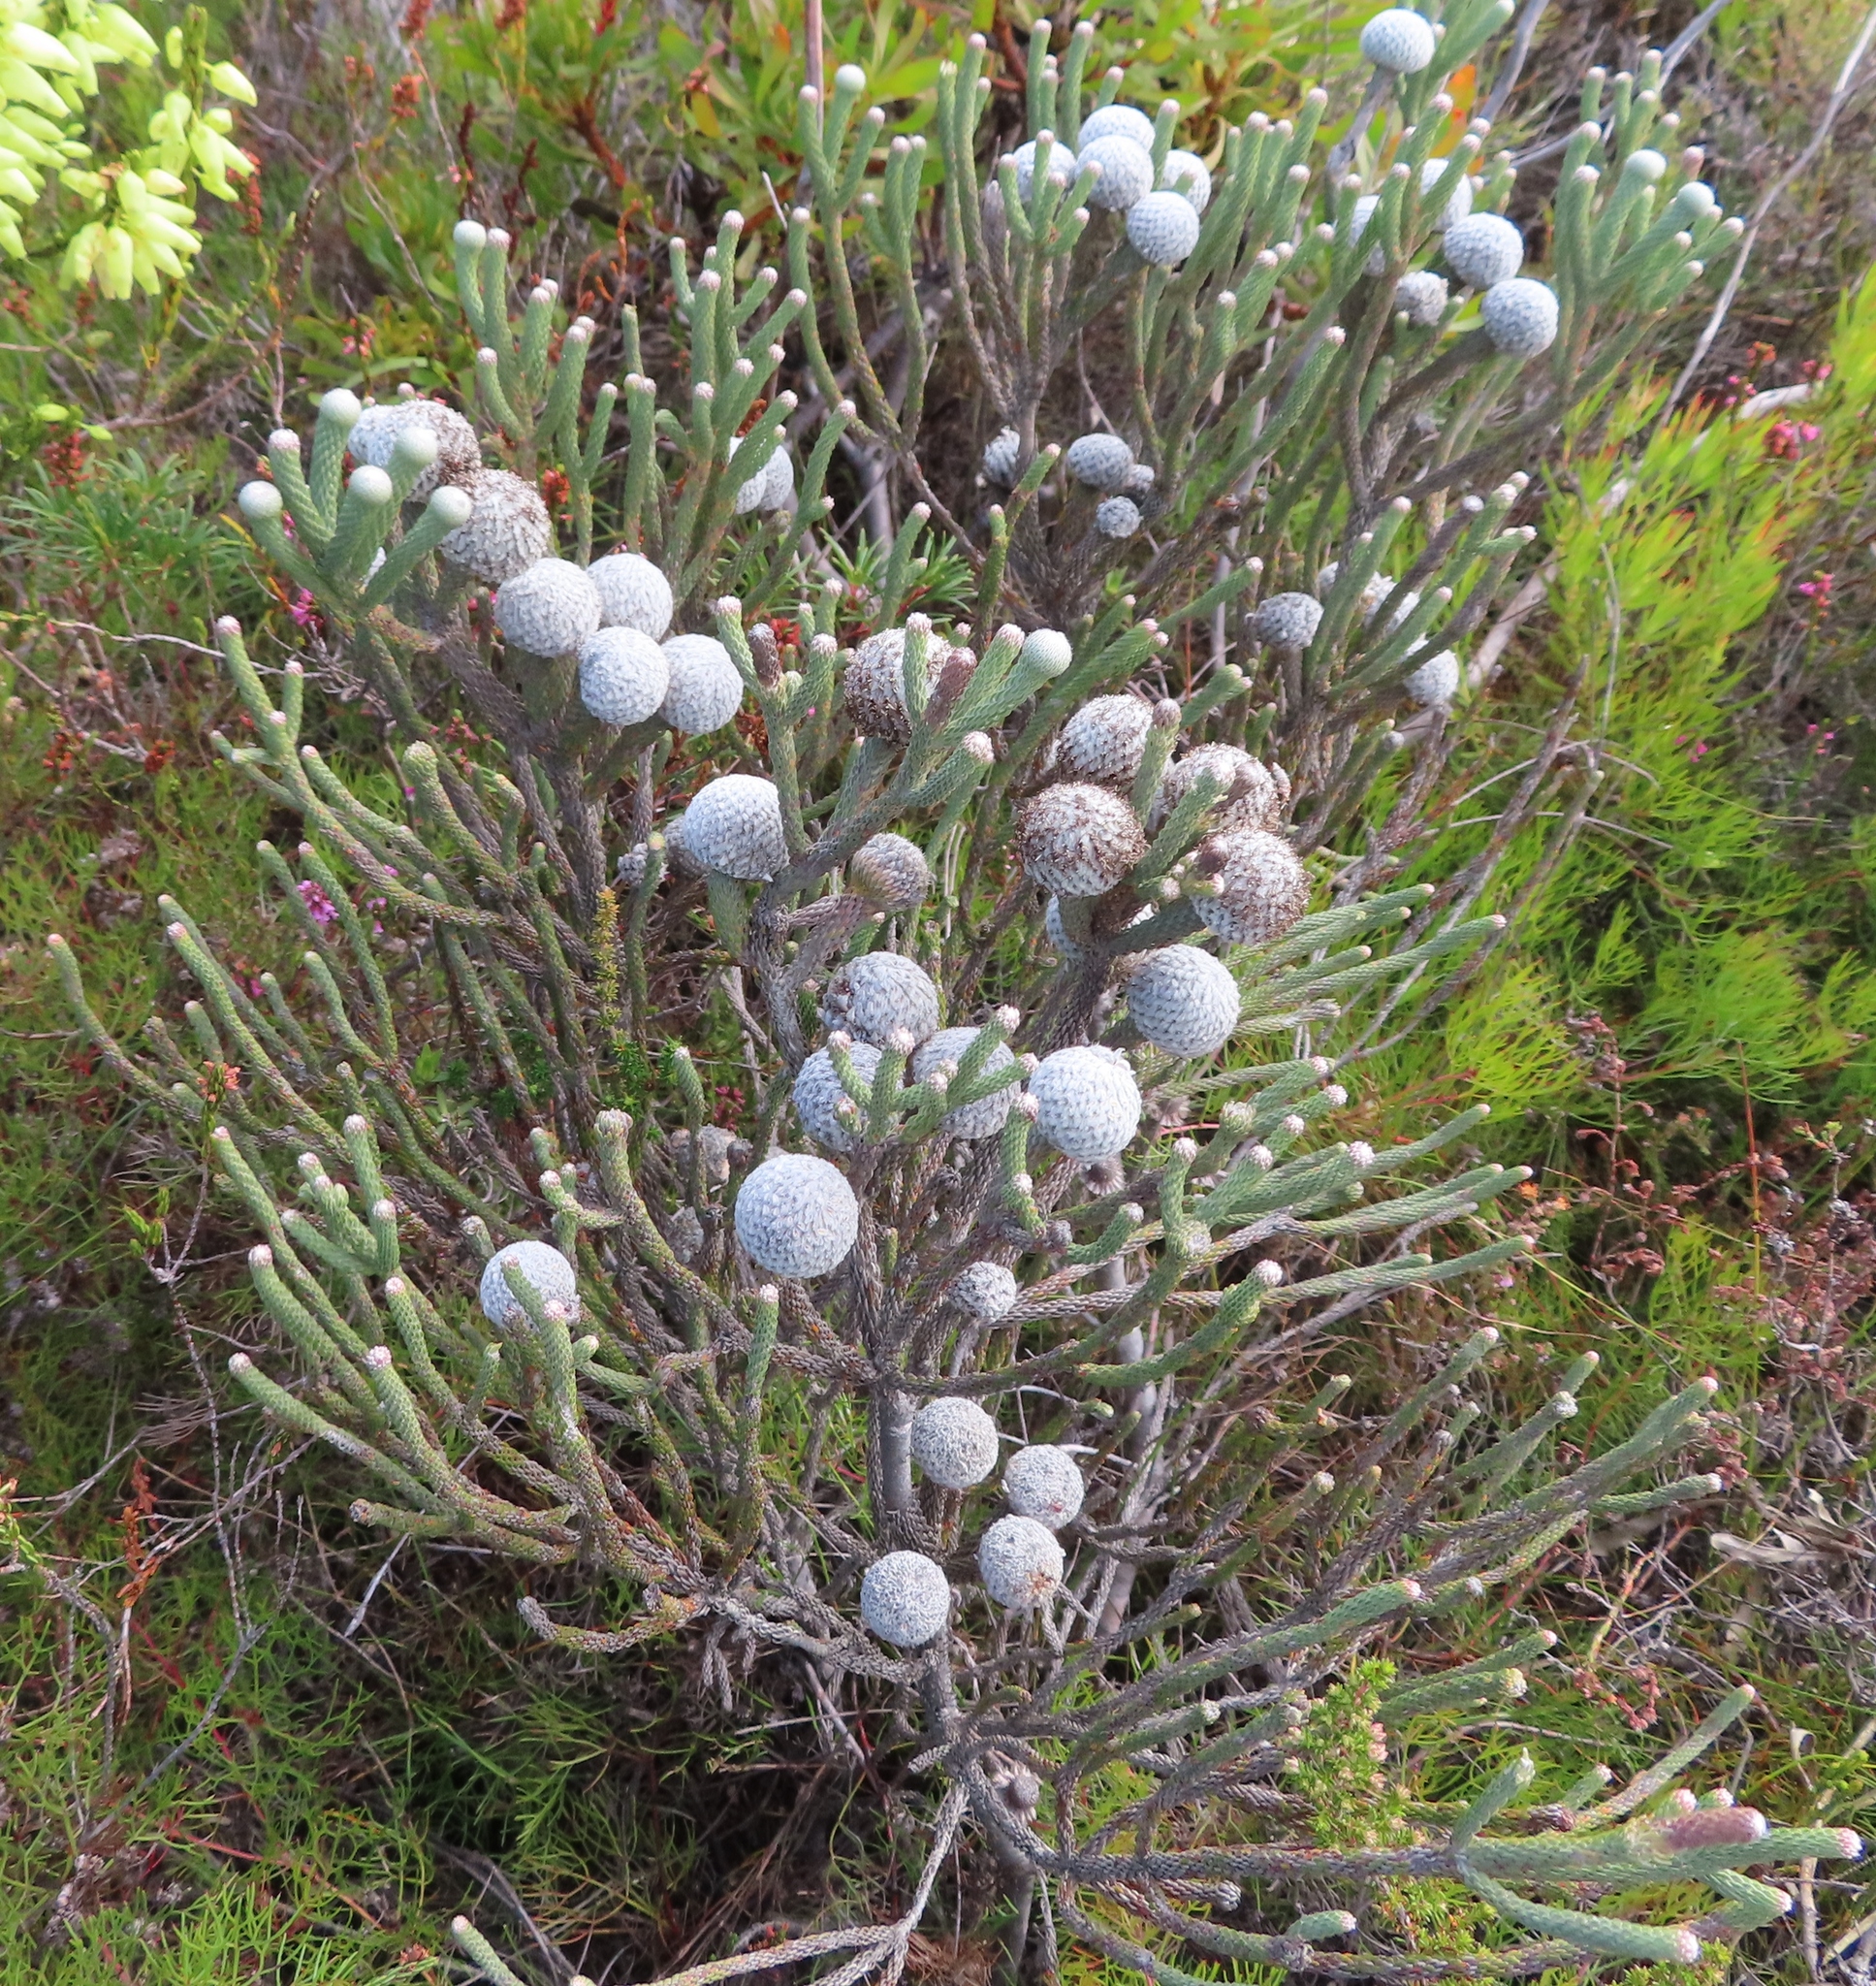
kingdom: Plantae
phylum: Tracheophyta
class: Magnoliopsida
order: Bruniales
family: Bruniaceae
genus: Brunia
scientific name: Brunia laevis
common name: Silver brunia
